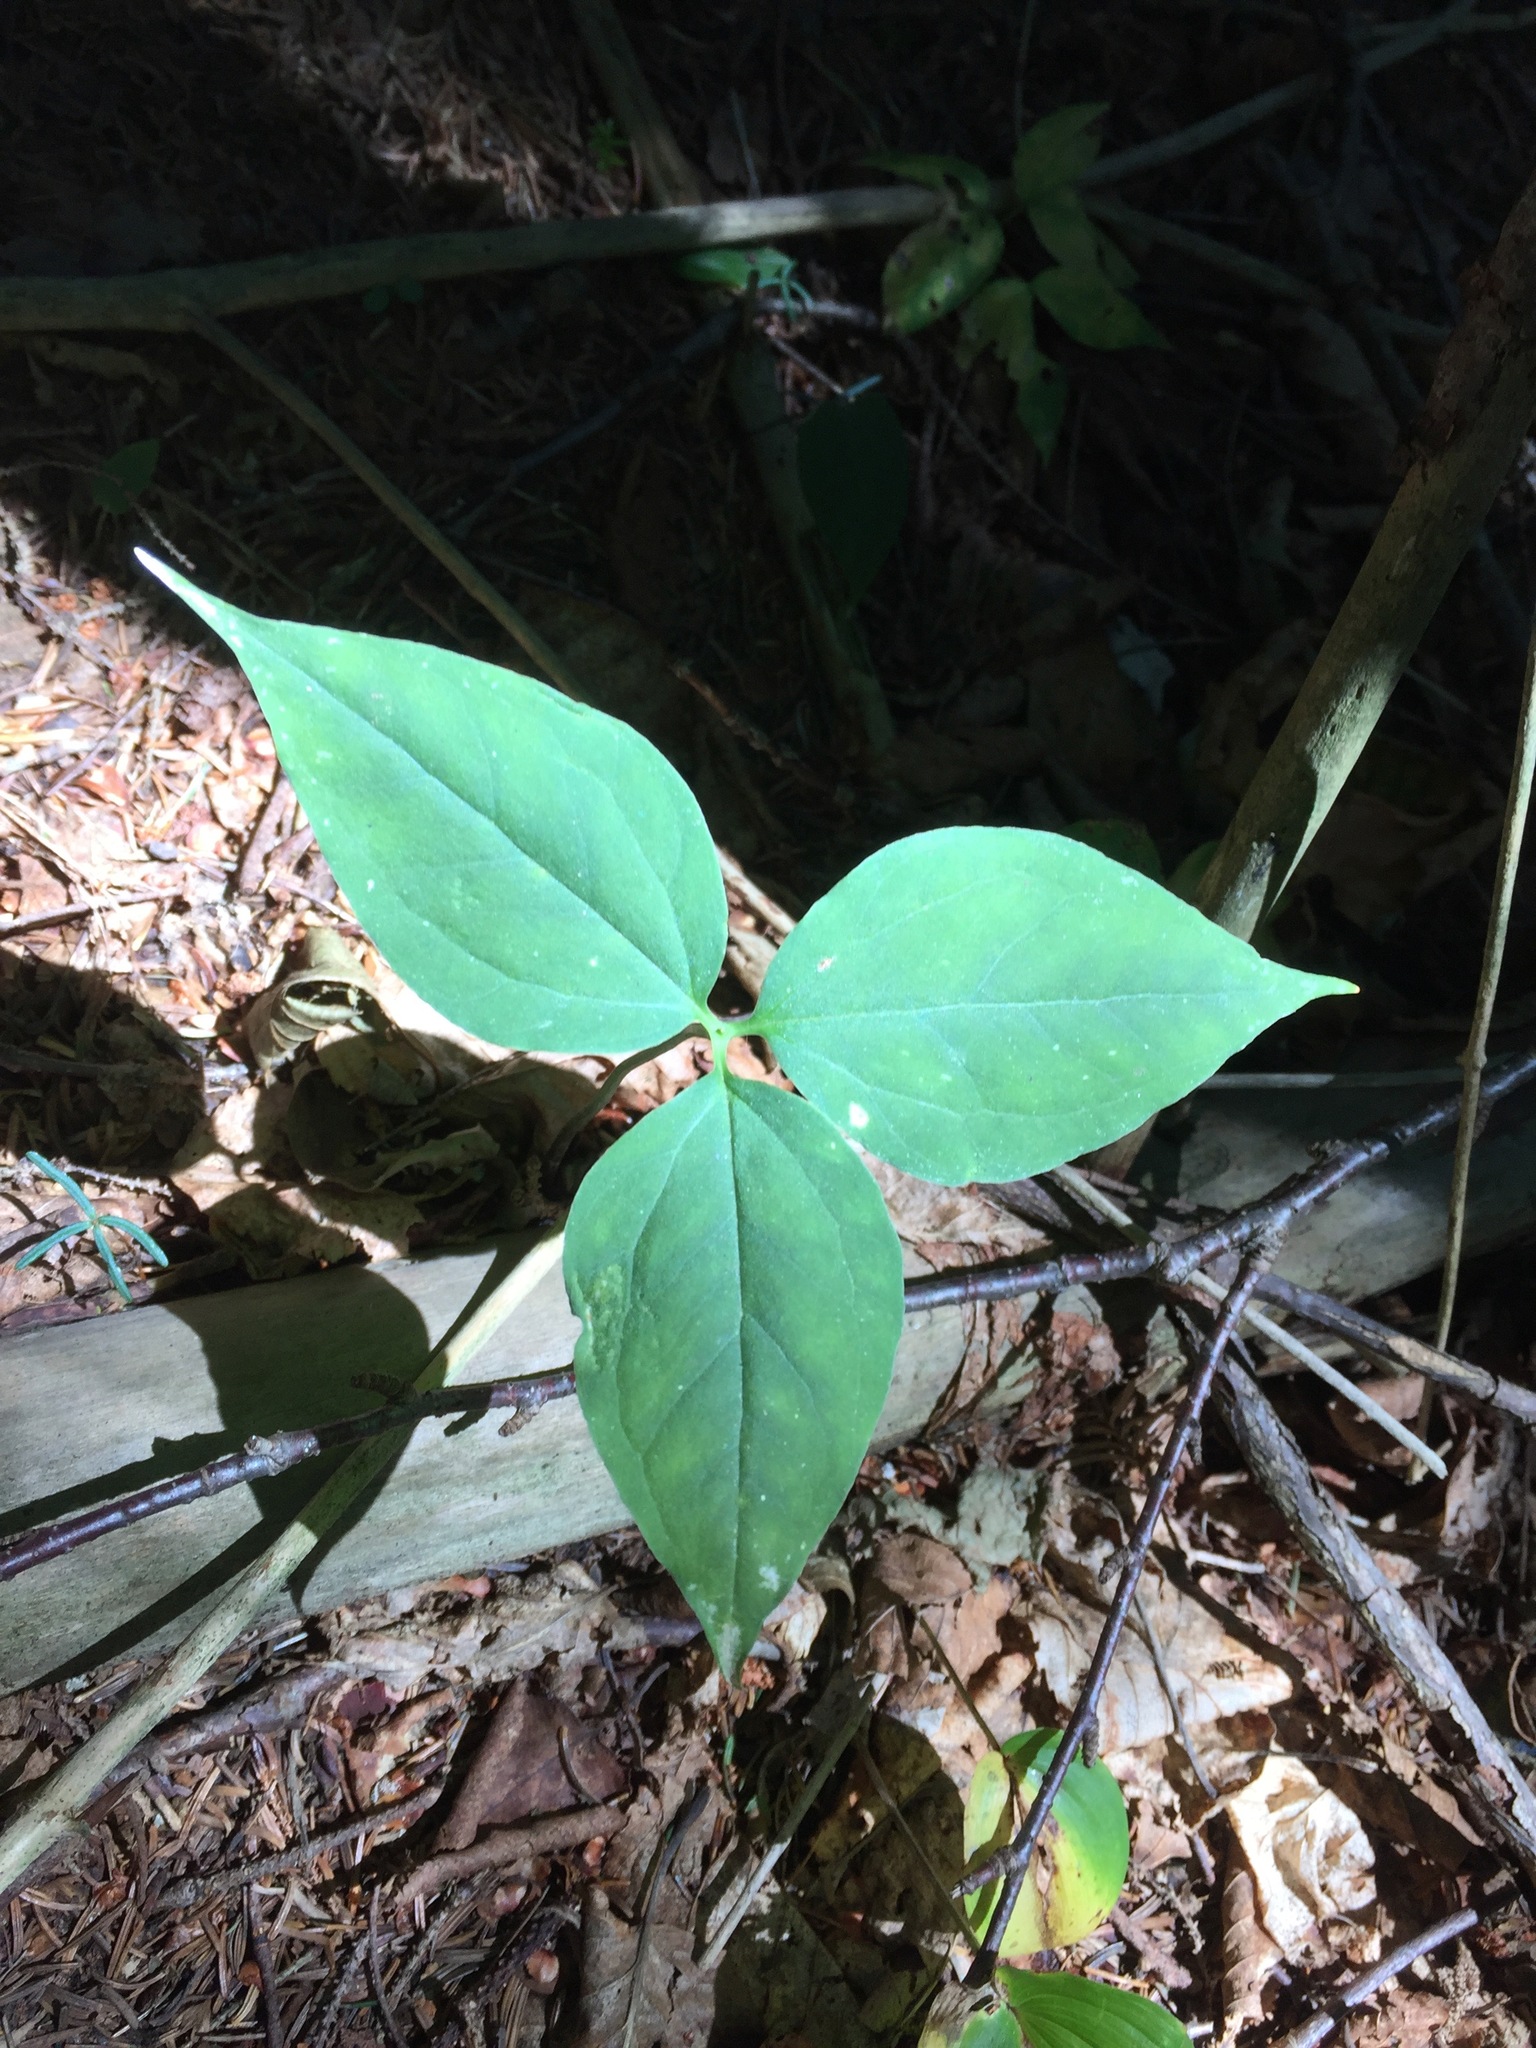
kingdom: Plantae
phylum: Tracheophyta
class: Liliopsida
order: Liliales
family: Melanthiaceae
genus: Trillium
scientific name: Trillium undulatum
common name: Paint trillium
